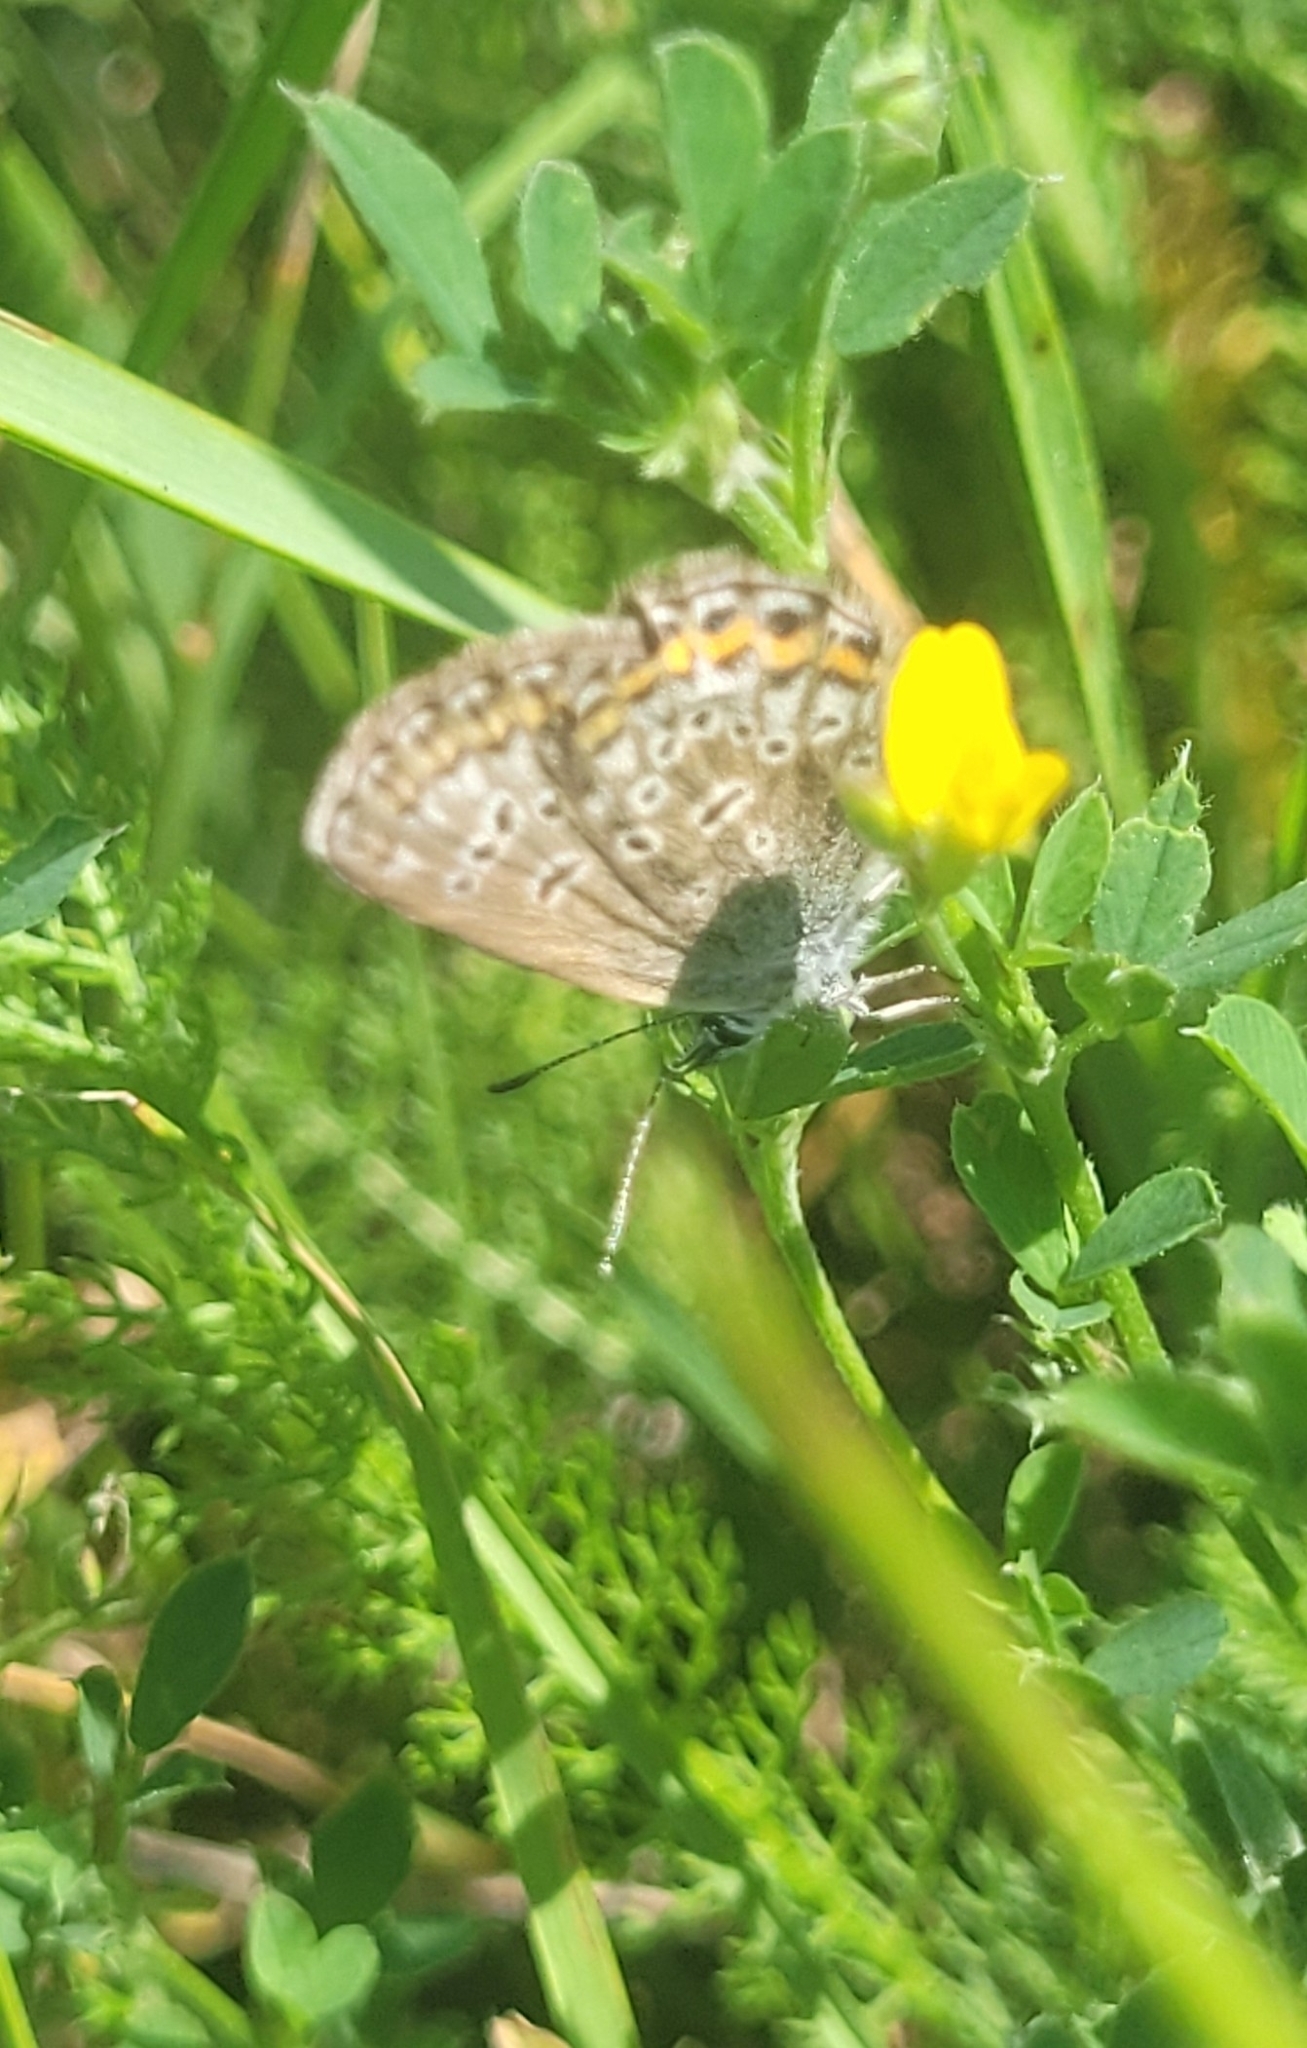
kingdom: Animalia
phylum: Arthropoda
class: Insecta
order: Lepidoptera
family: Lycaenidae
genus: Plebejus
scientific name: Plebejus argus
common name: Silver-studded blue
